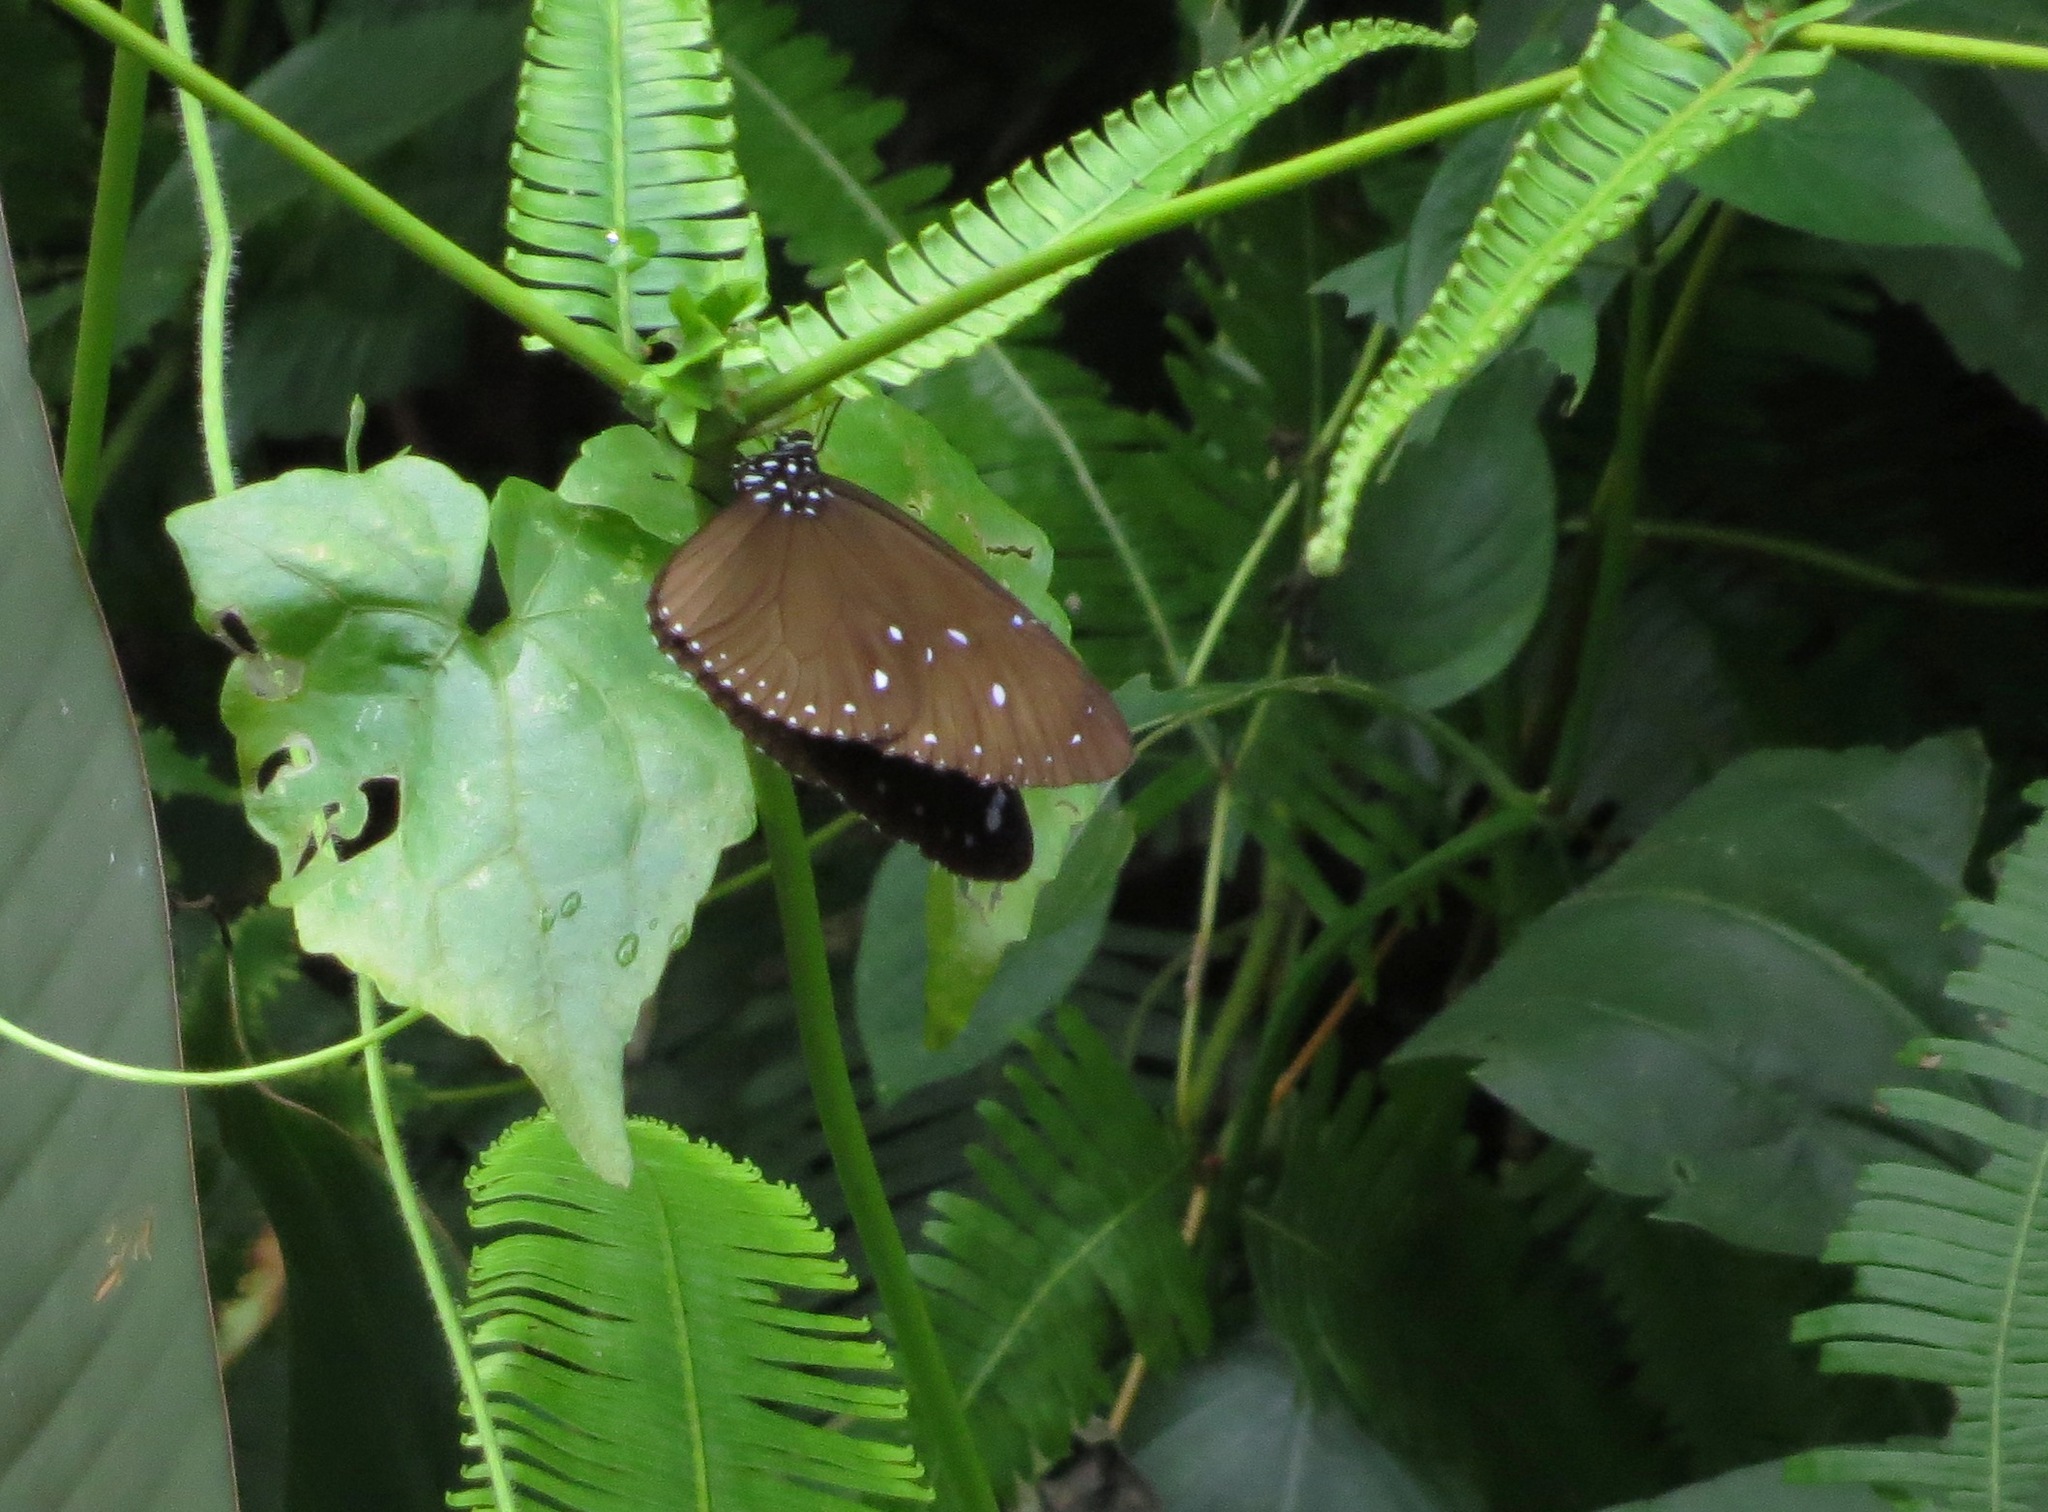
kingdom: Animalia
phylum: Arthropoda
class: Insecta
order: Lepidoptera
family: Nymphalidae
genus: Euploea
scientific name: Euploea eunice
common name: Blue-banded king crow butterfly
